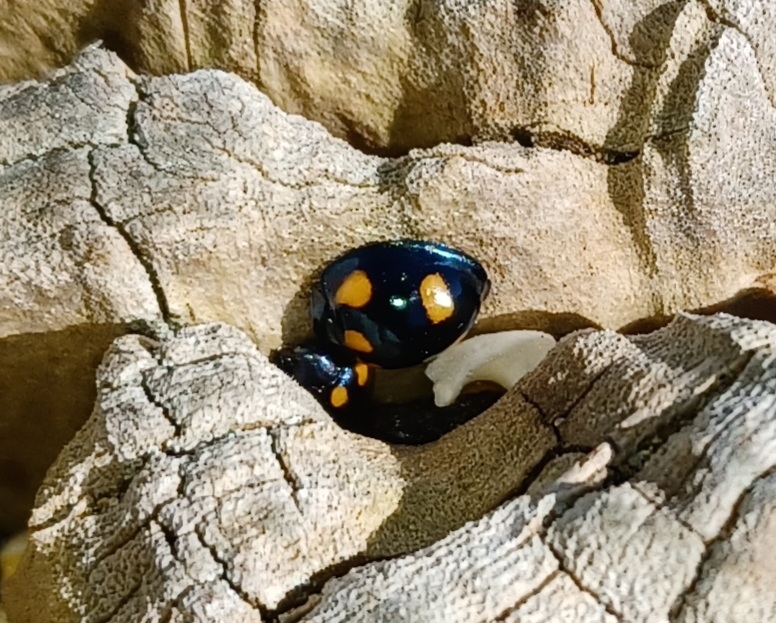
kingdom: Animalia
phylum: Arthropoda
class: Insecta
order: Coleoptera
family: Coccinellidae
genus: Orcus
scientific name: Orcus australasiae
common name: Lady beetle
